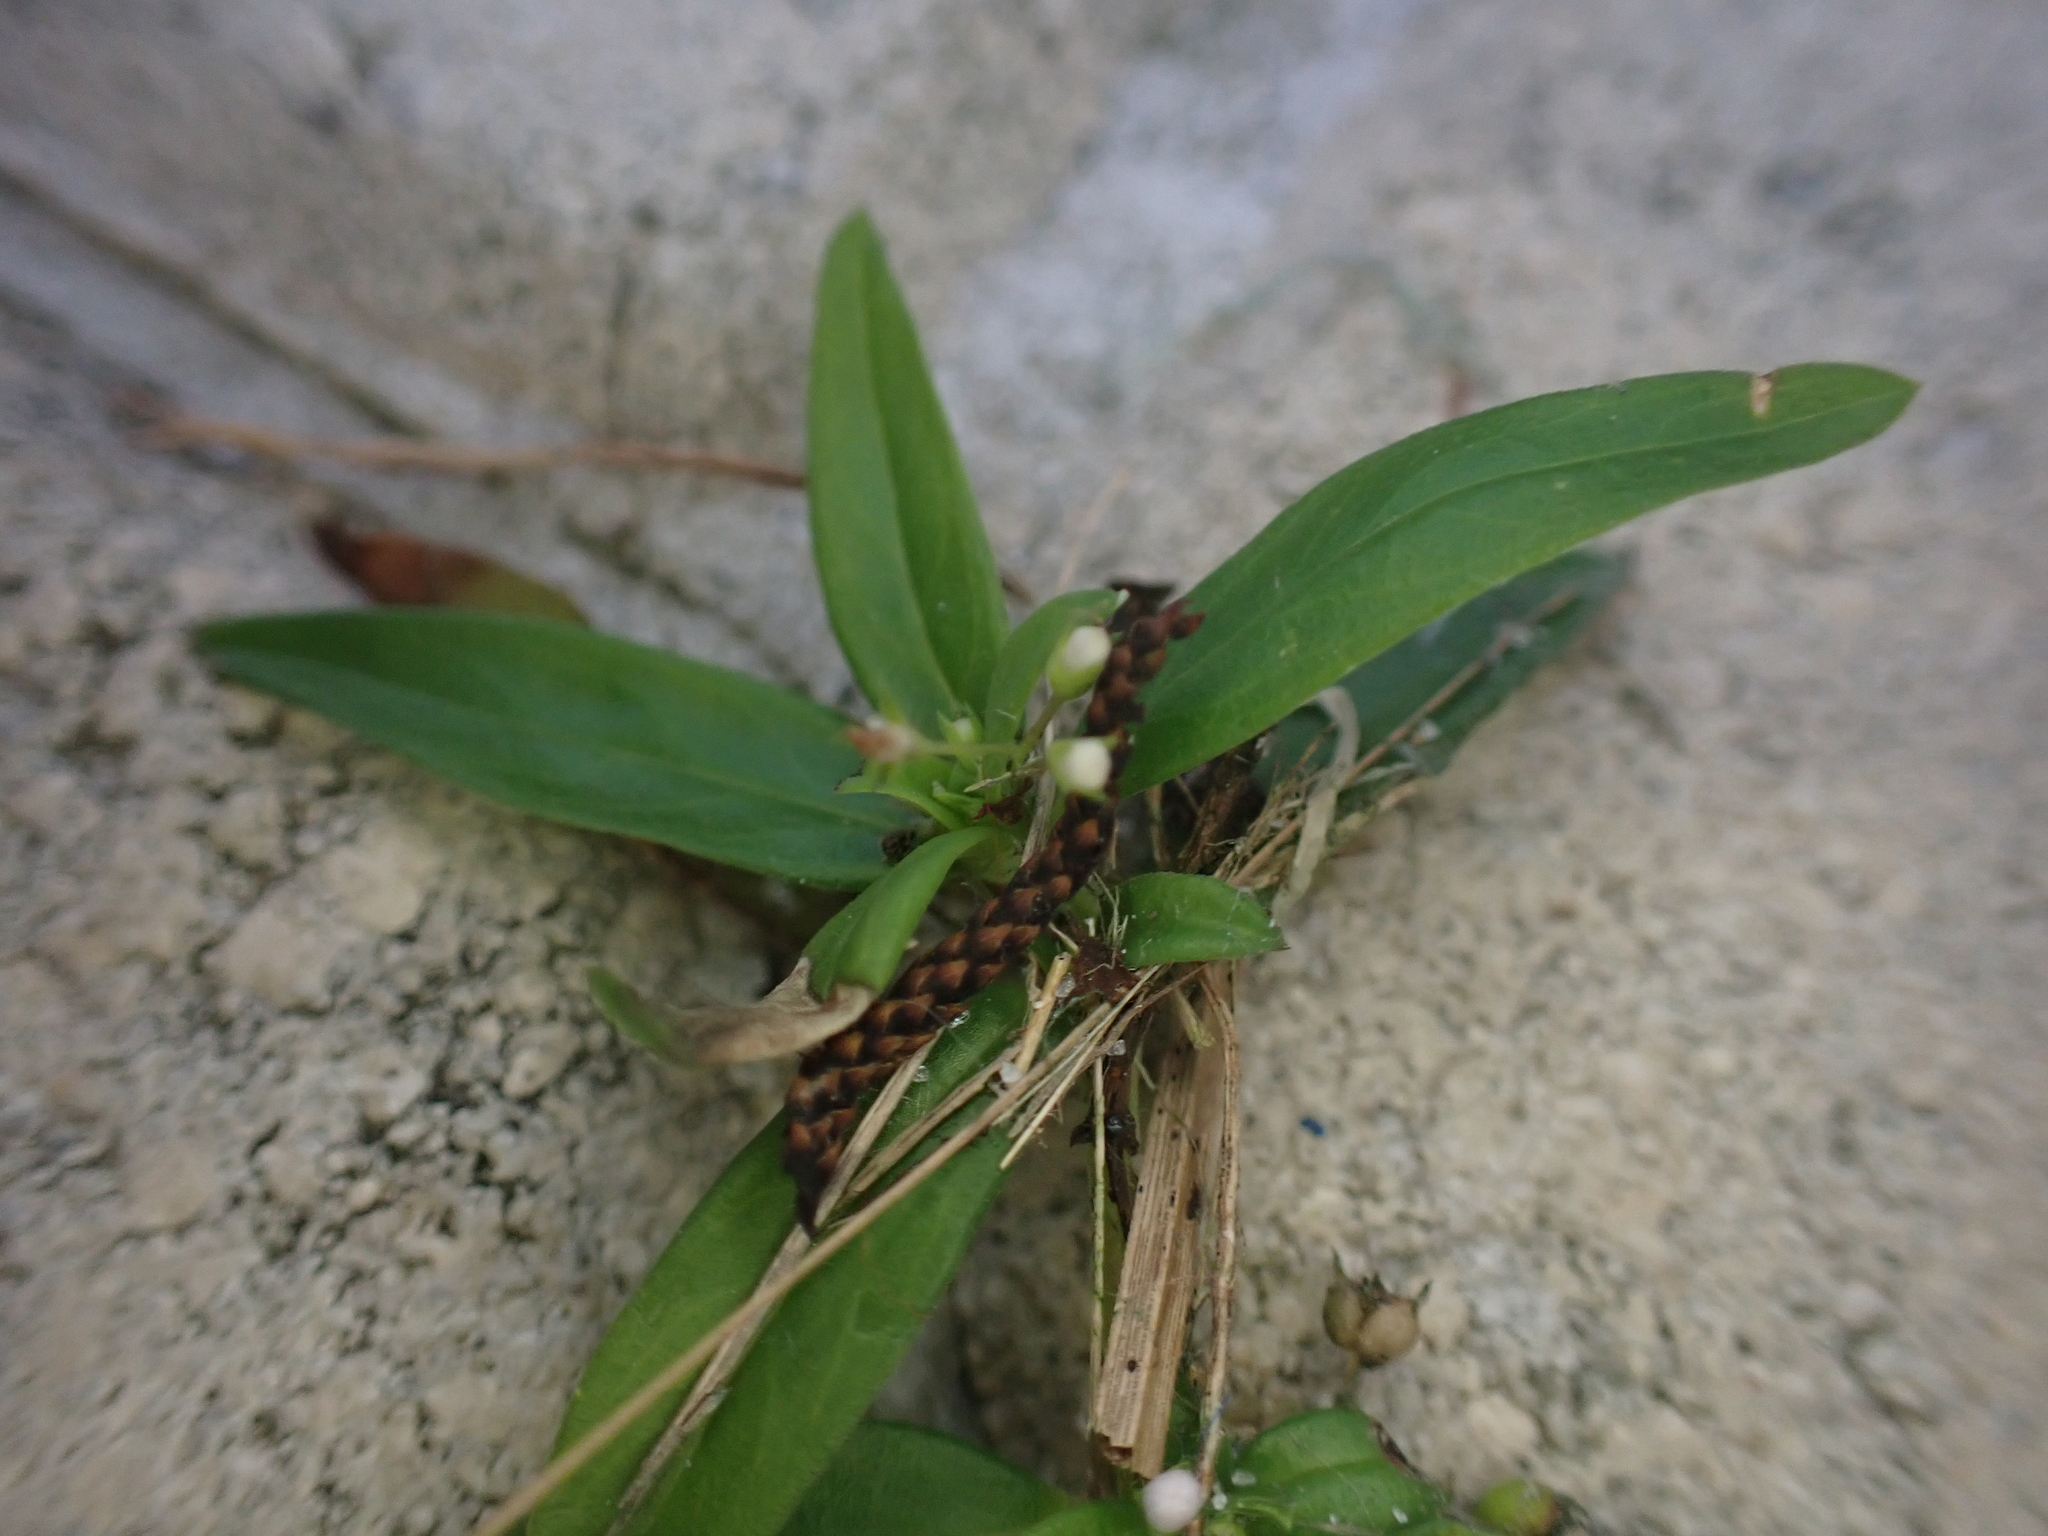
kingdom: Plantae
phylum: Tracheophyta
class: Magnoliopsida
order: Gentianales
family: Rubiaceae
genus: Oldenlandia
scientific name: Oldenlandia corymbosa
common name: Flat-top mille graines
